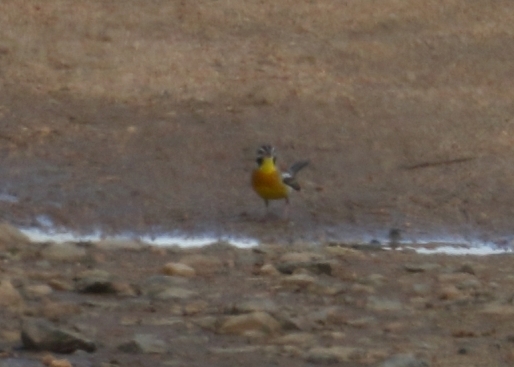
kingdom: Animalia
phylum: Chordata
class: Aves
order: Passeriformes
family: Emberizidae
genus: Emberiza
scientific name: Emberiza flaviventris
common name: Golden-breasted bunting
